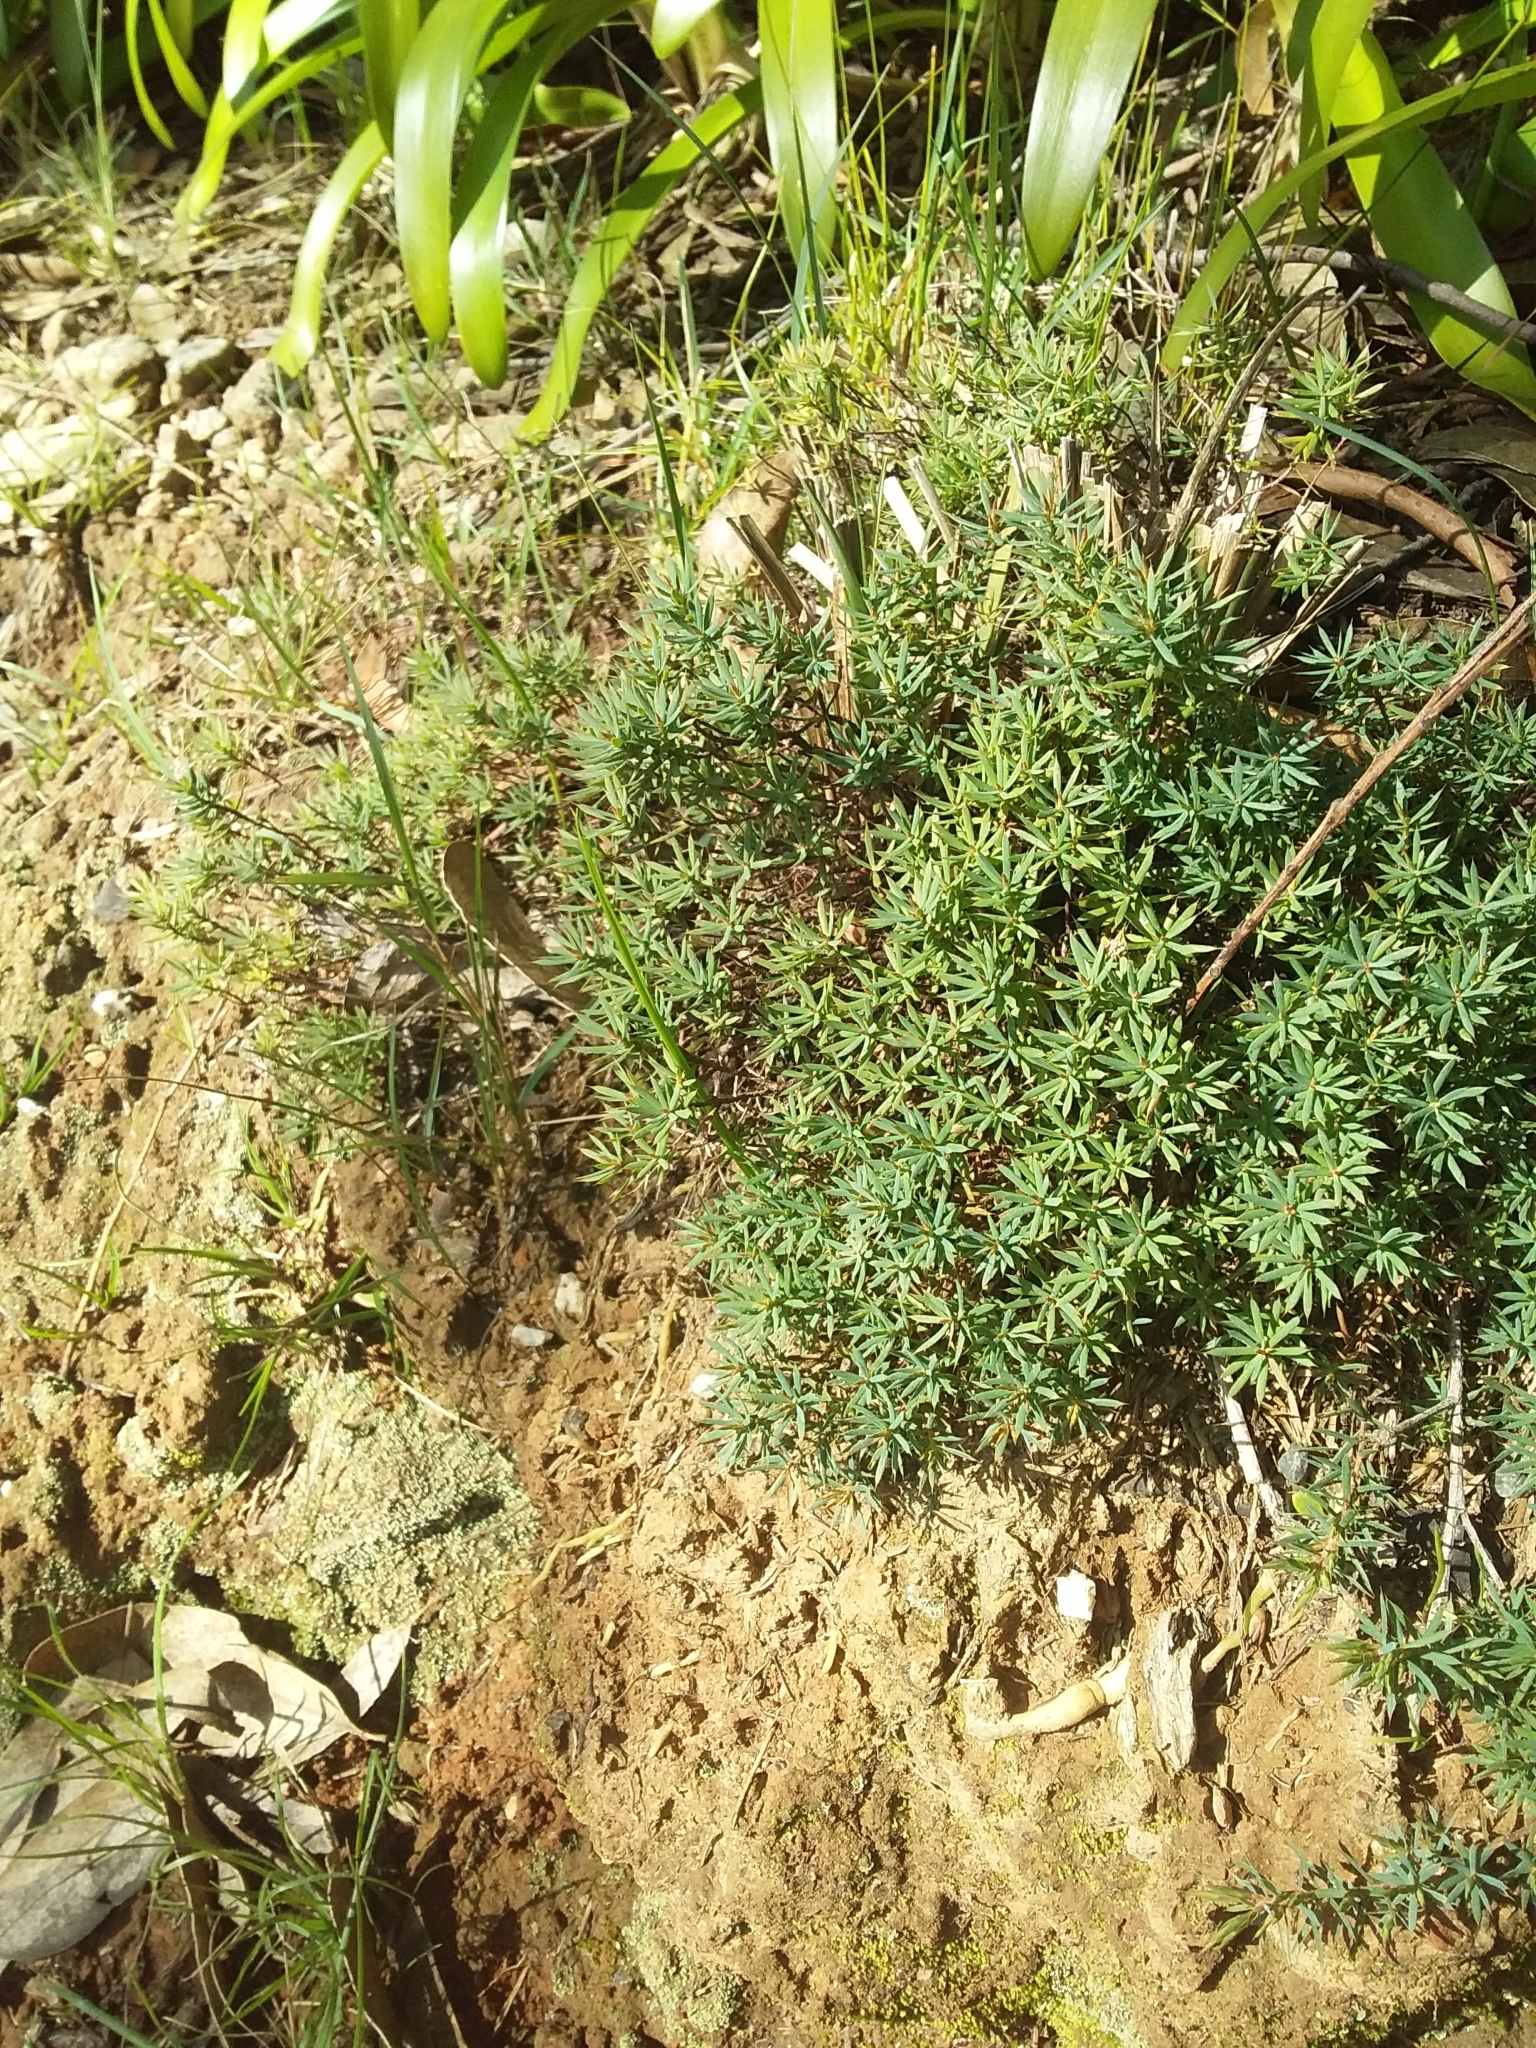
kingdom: Plantae
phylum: Tracheophyta
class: Magnoliopsida
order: Ericales
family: Ericaceae
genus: Styphelia
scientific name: Styphelia humifusa
